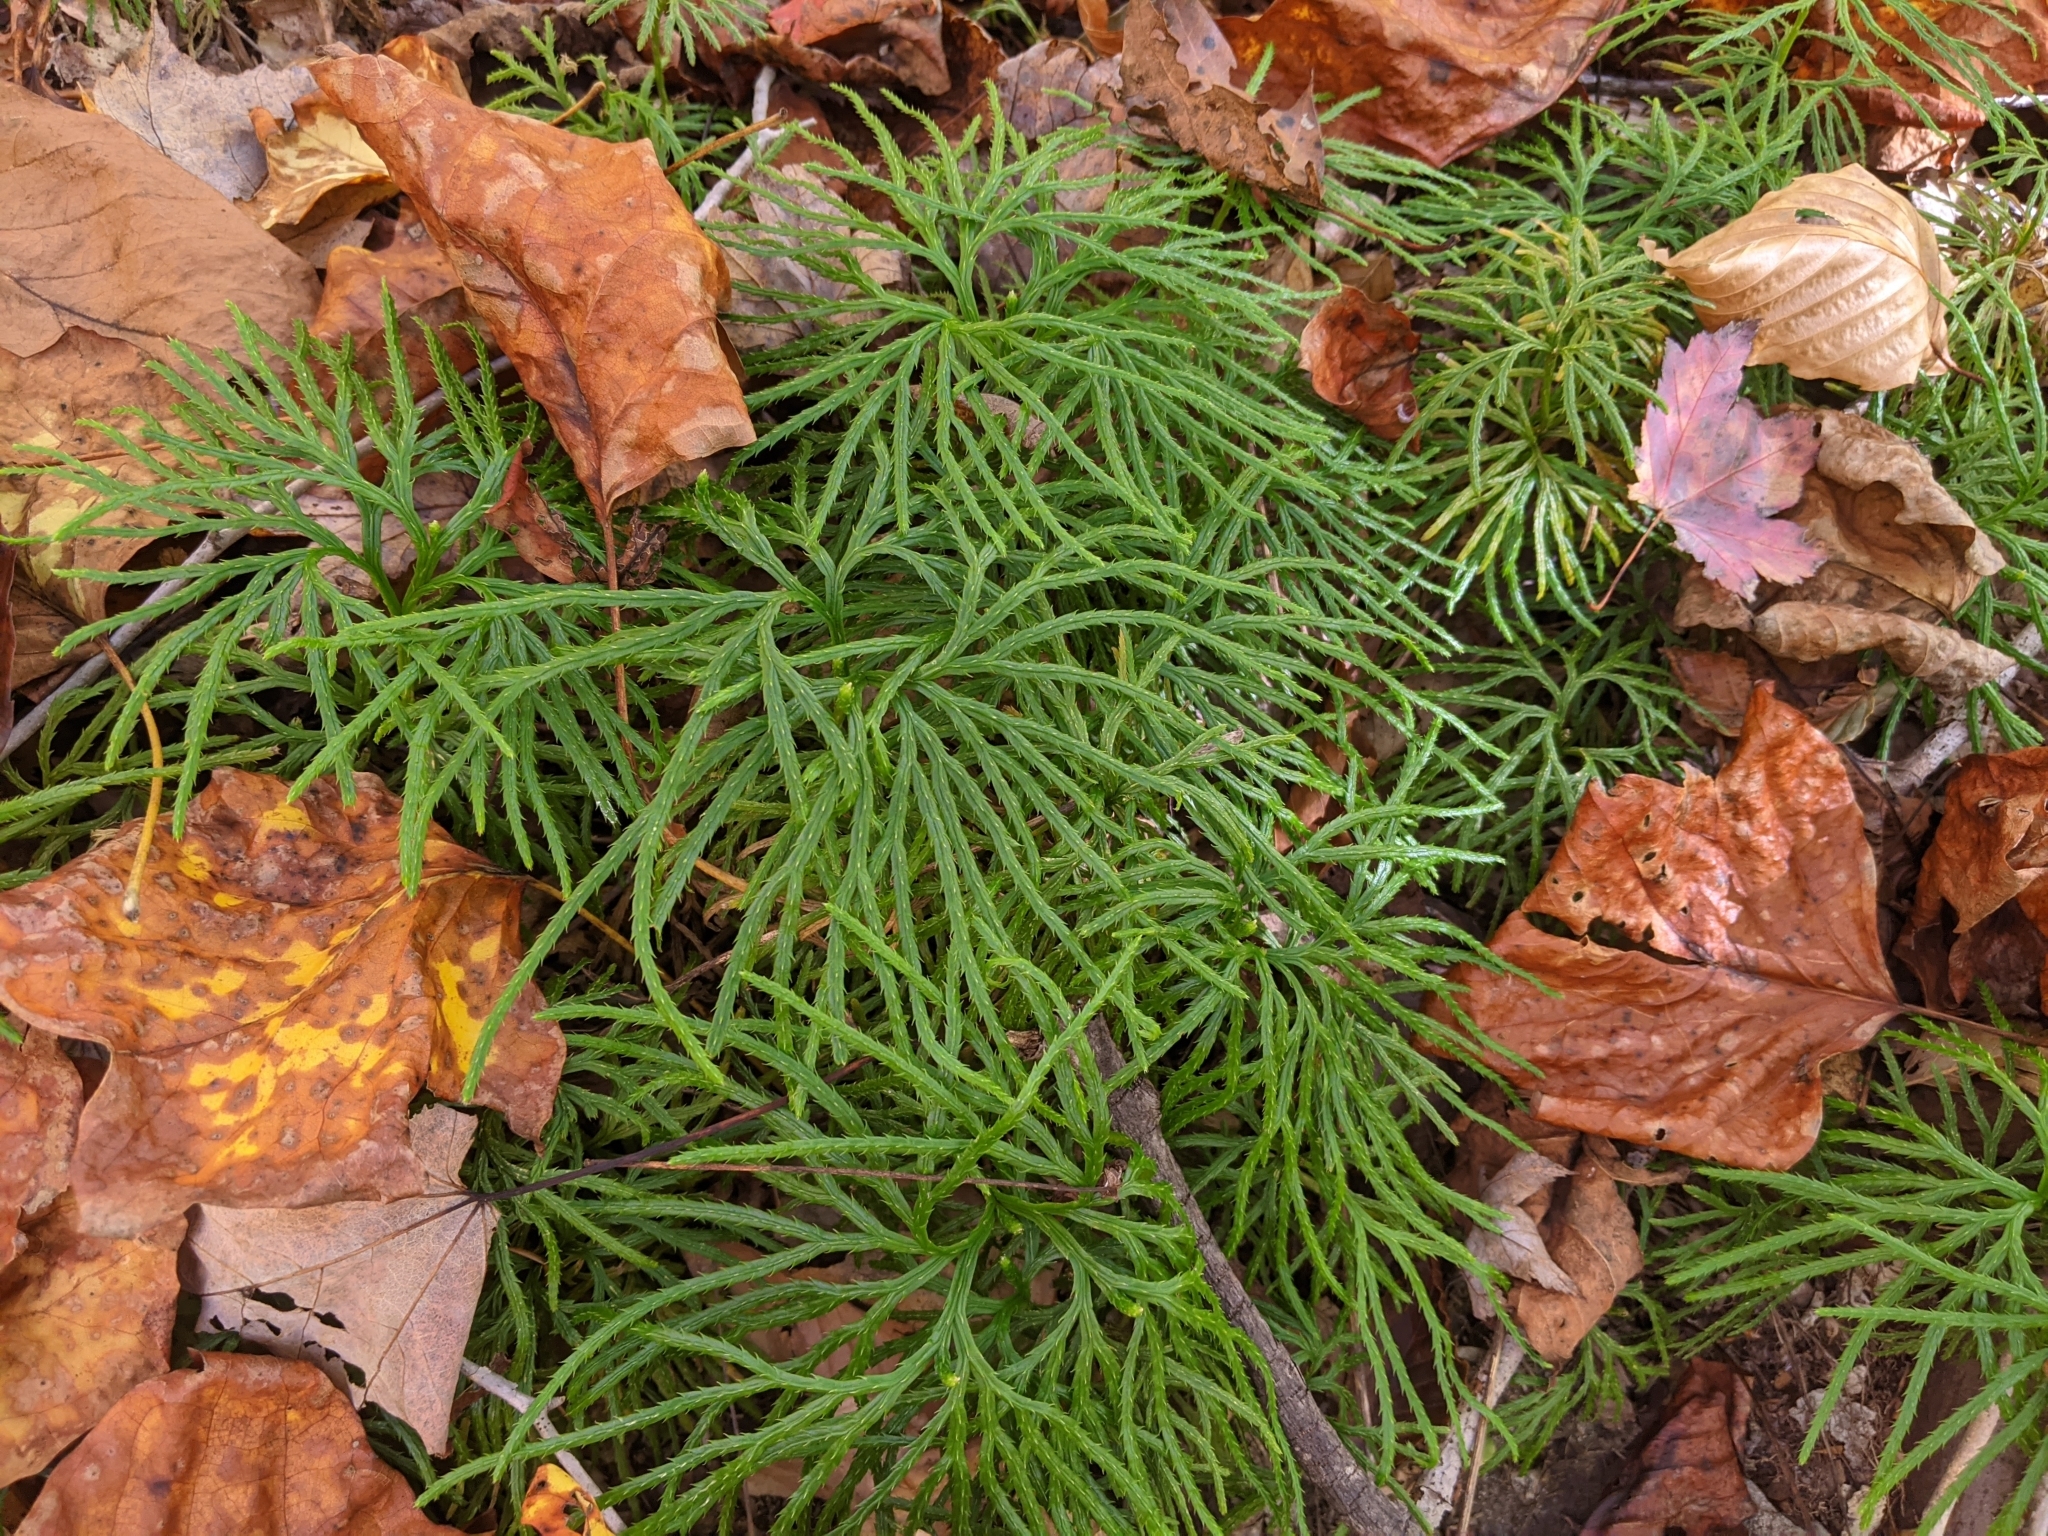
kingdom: Plantae
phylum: Tracheophyta
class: Lycopodiopsida
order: Lycopodiales
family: Lycopodiaceae
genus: Diphasiastrum
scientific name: Diphasiastrum digitatum
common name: Southern running-pine
